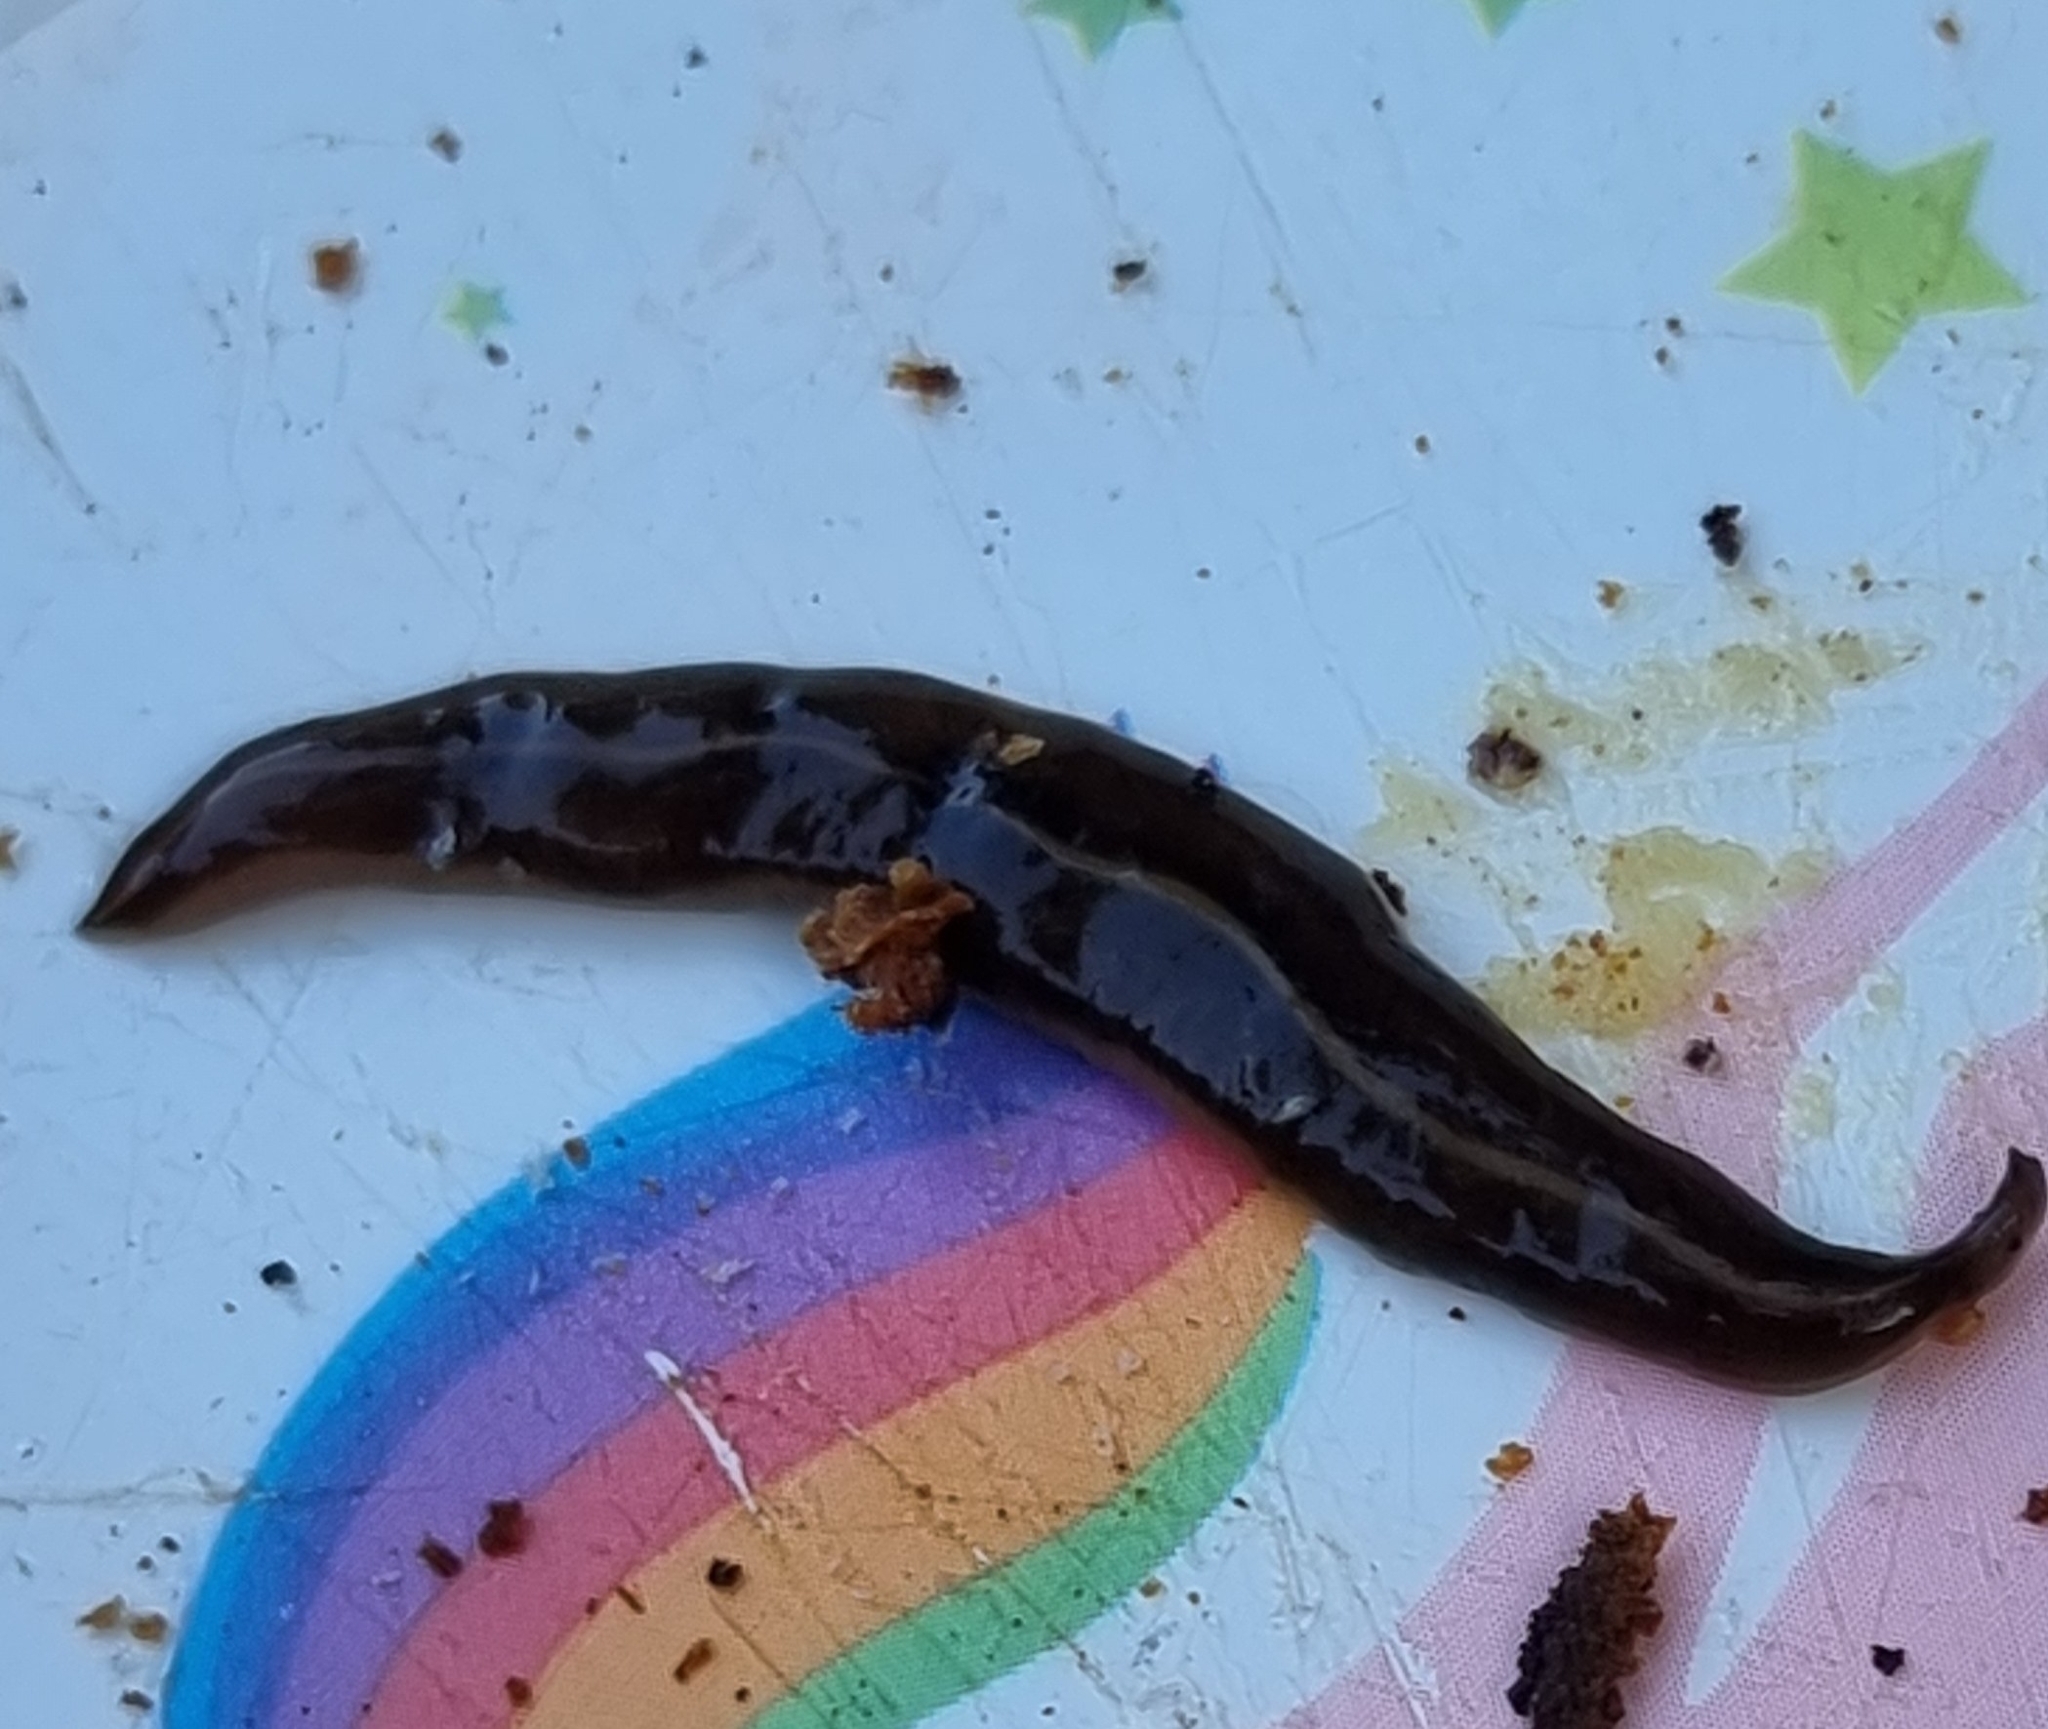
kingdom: Animalia
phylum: Platyhelminthes
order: Tricladida
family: Geoplanidae
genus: Platydemus
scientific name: Platydemus manokwari
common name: New guinea flatworm
